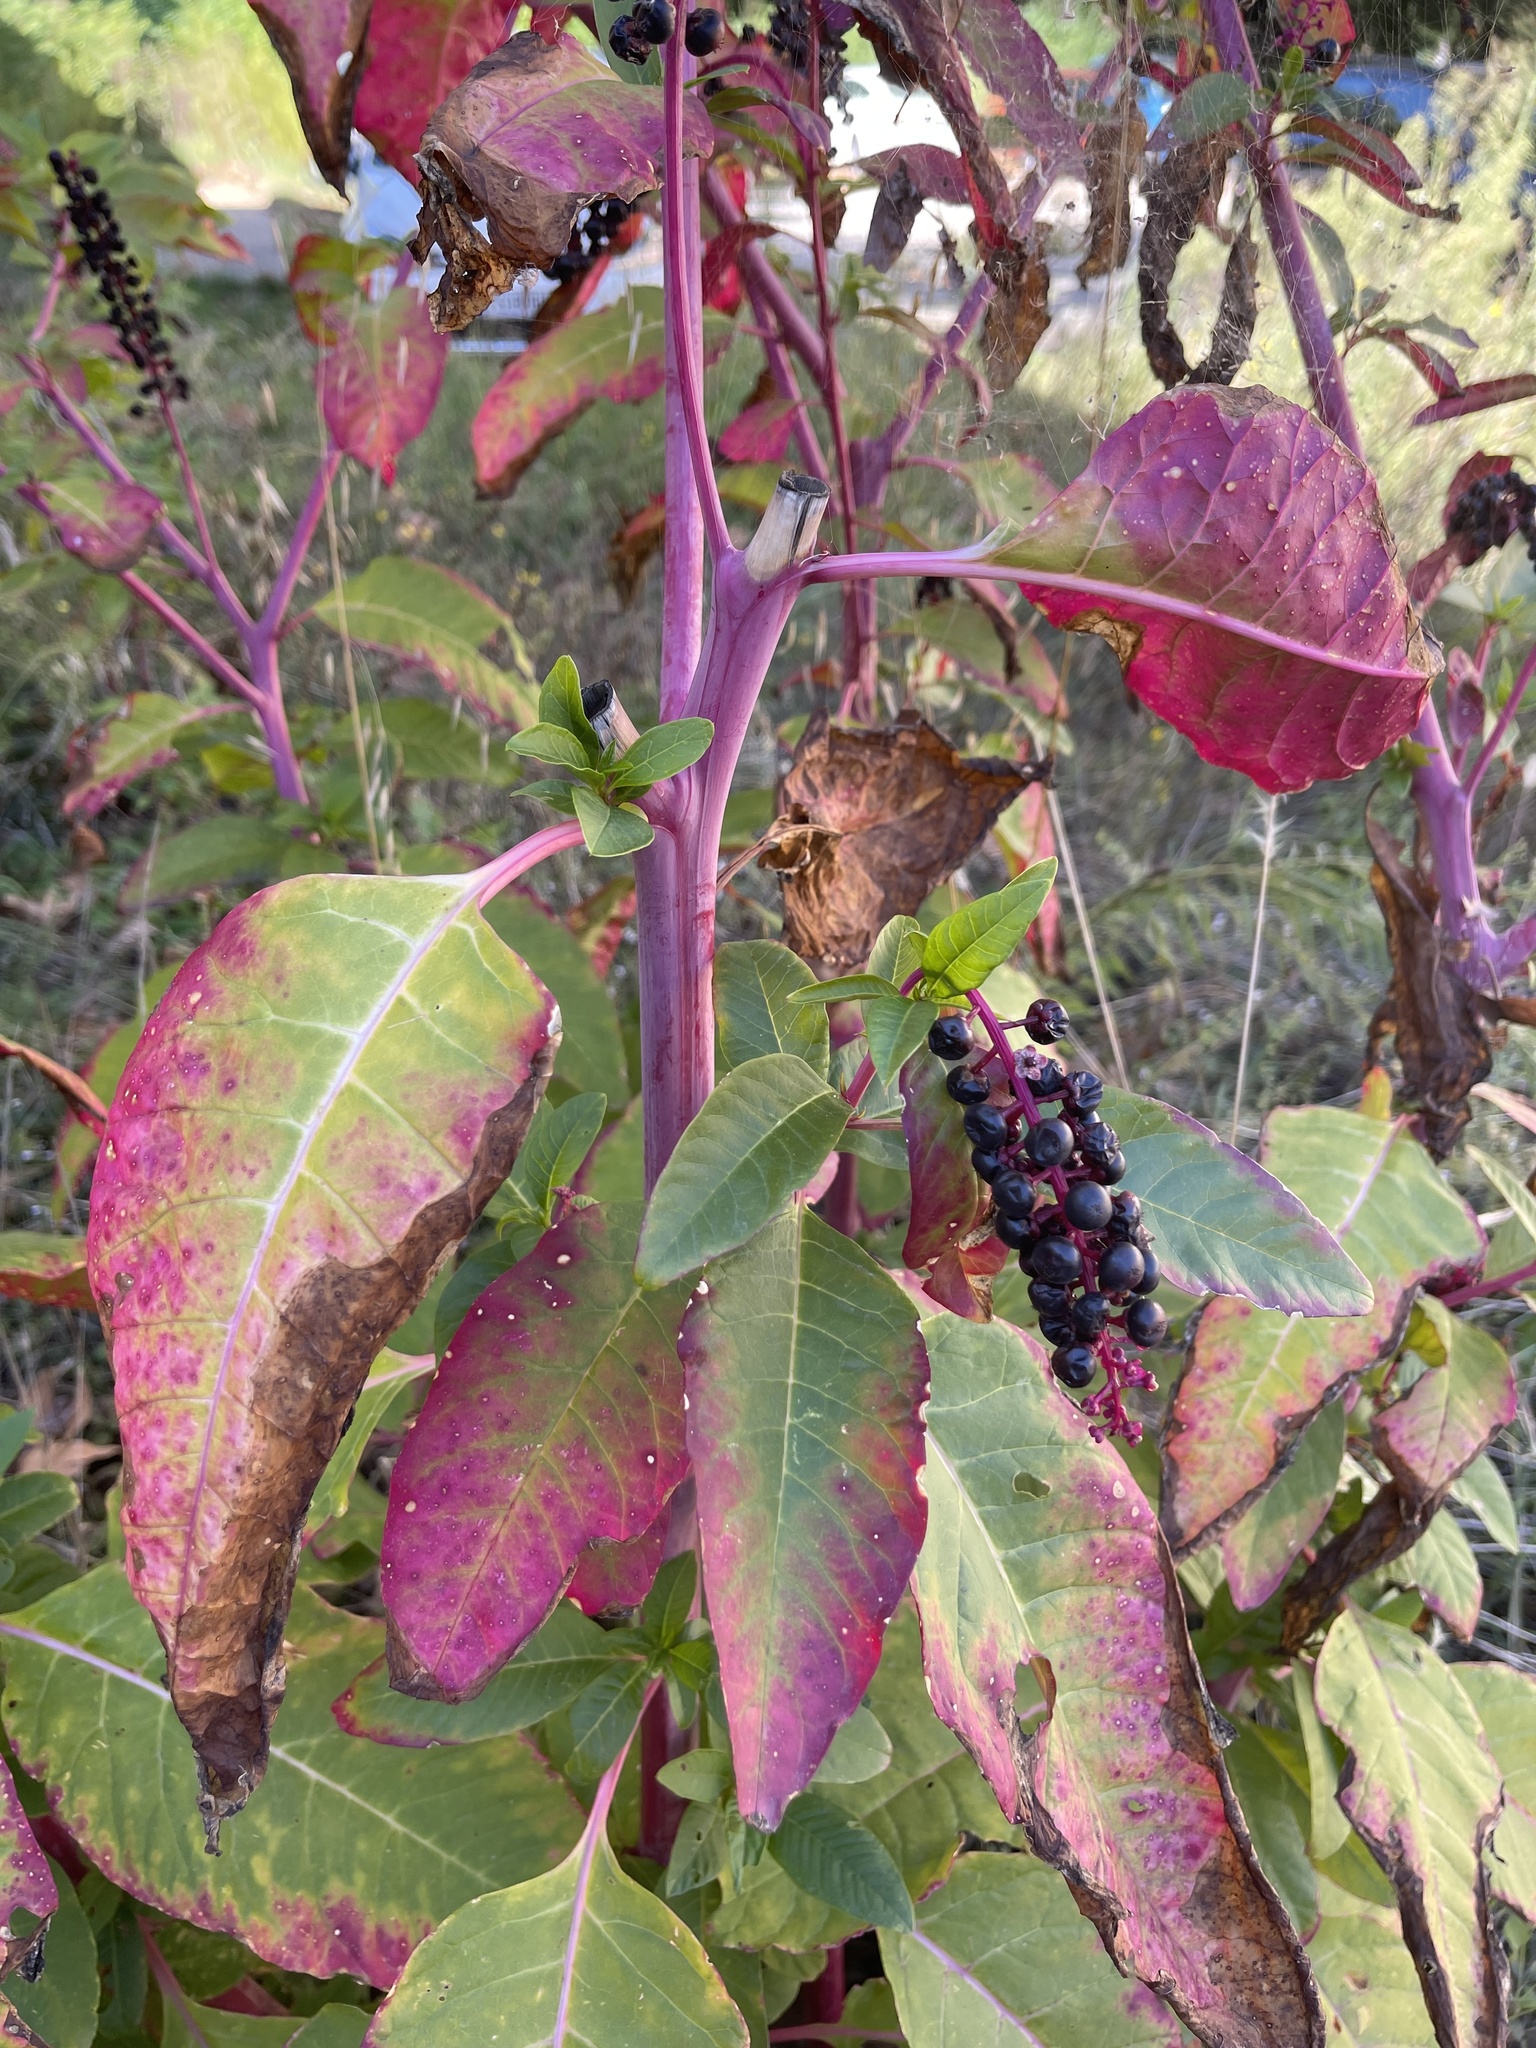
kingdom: Plantae
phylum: Tracheophyta
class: Magnoliopsida
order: Caryophyllales
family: Phytolaccaceae
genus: Phytolacca
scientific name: Phytolacca americana
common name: American pokeweed
